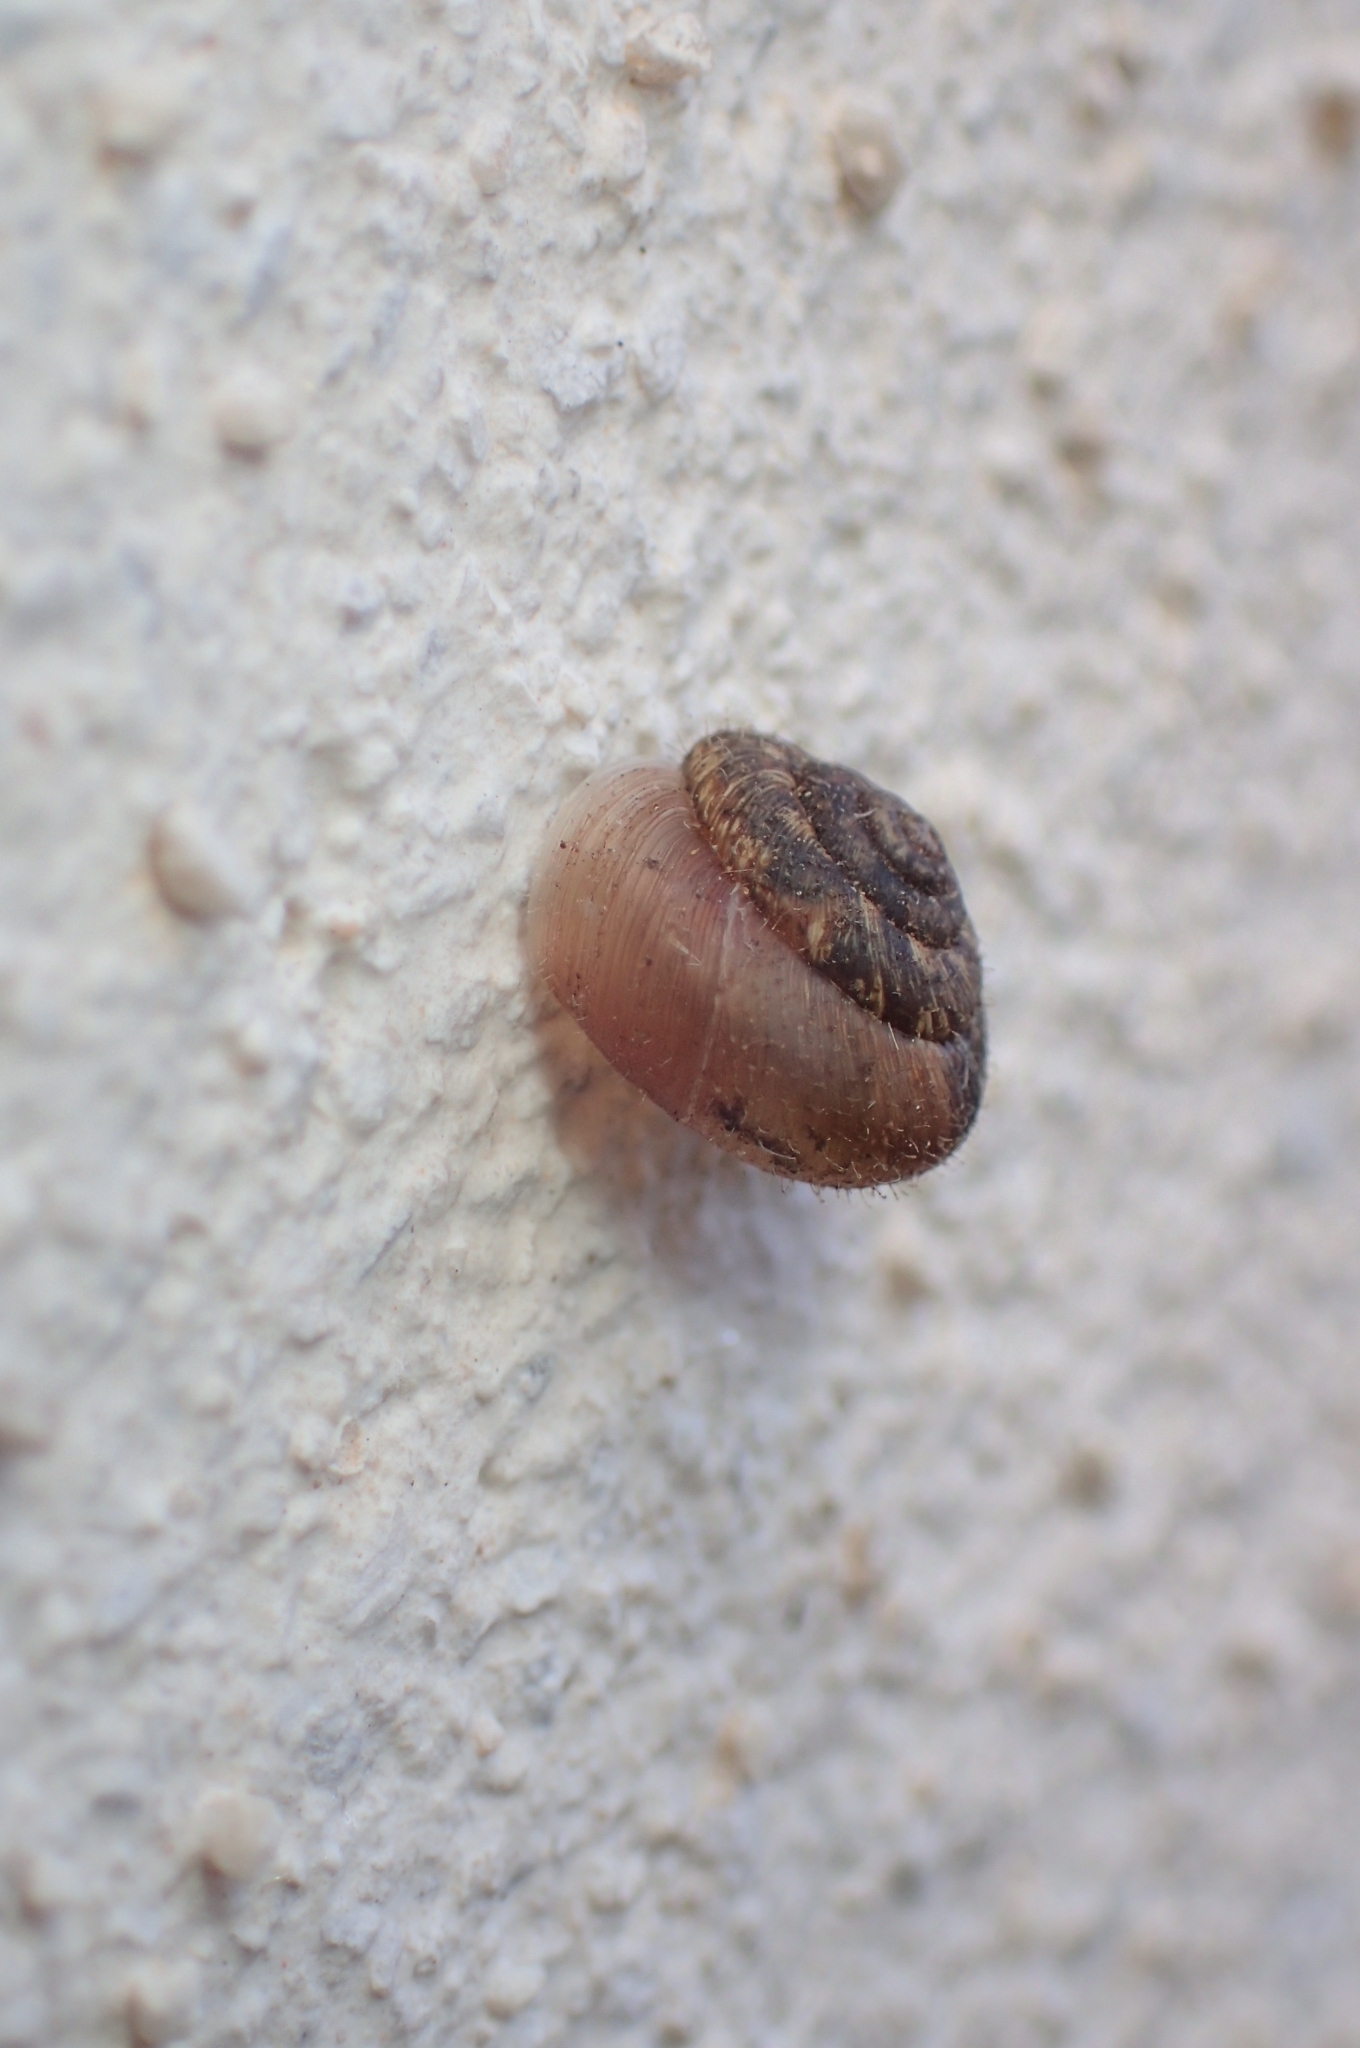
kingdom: Animalia
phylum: Mollusca
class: Gastropoda
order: Stylommatophora
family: Geomitridae
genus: Xerotricha
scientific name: Xerotricha conspurcata
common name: Snail
